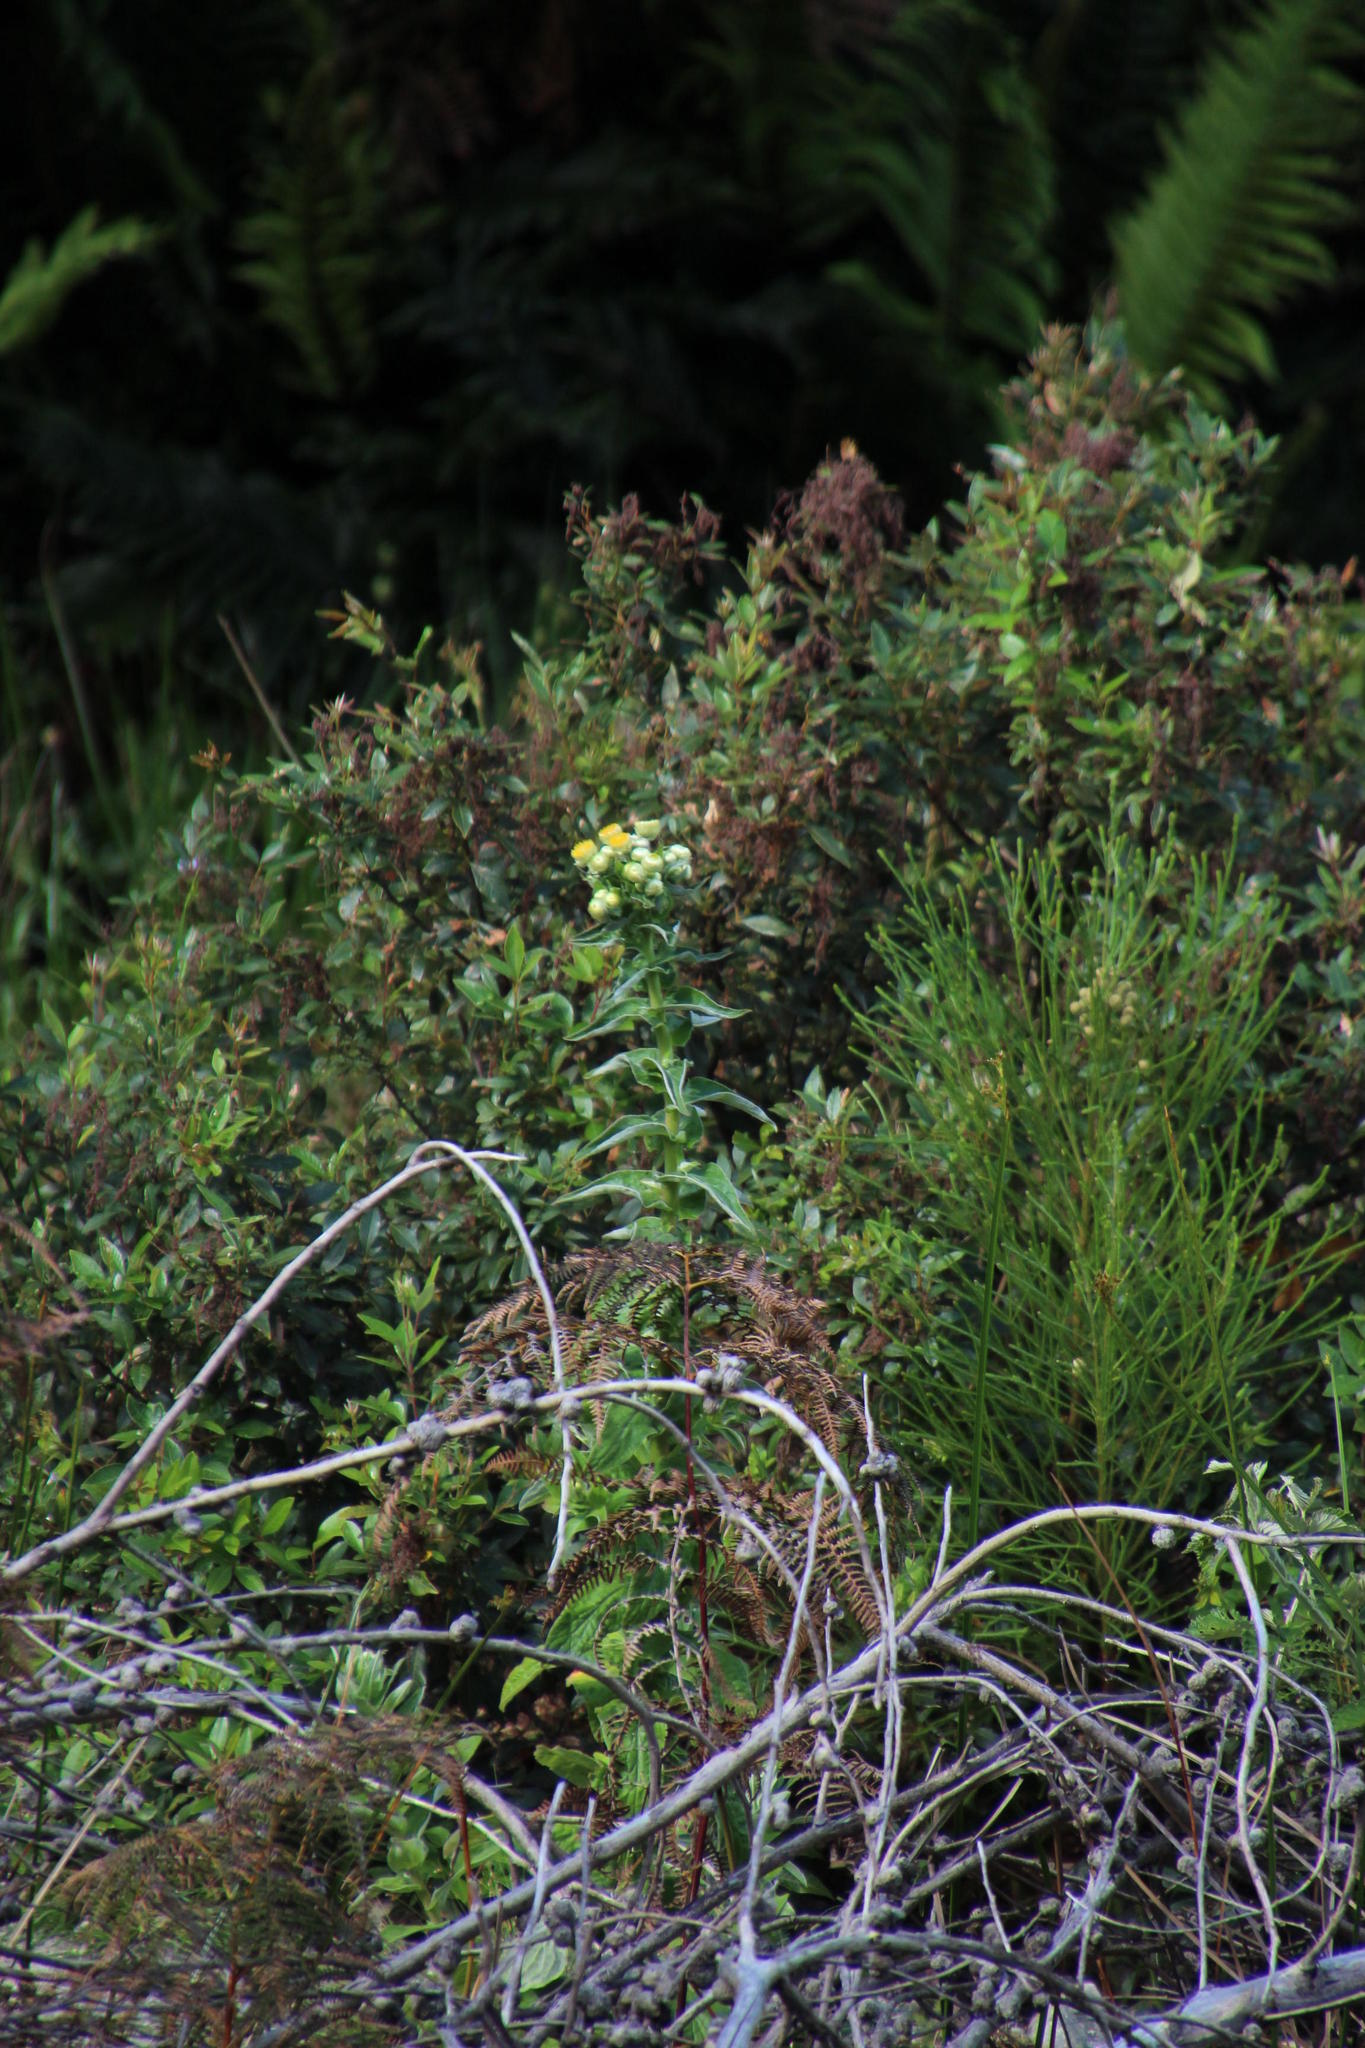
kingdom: Plantae
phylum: Tracheophyta
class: Magnoliopsida
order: Asterales
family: Asteraceae
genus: Helichrysum
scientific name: Helichrysum foetidum
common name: Stinking everlasting
